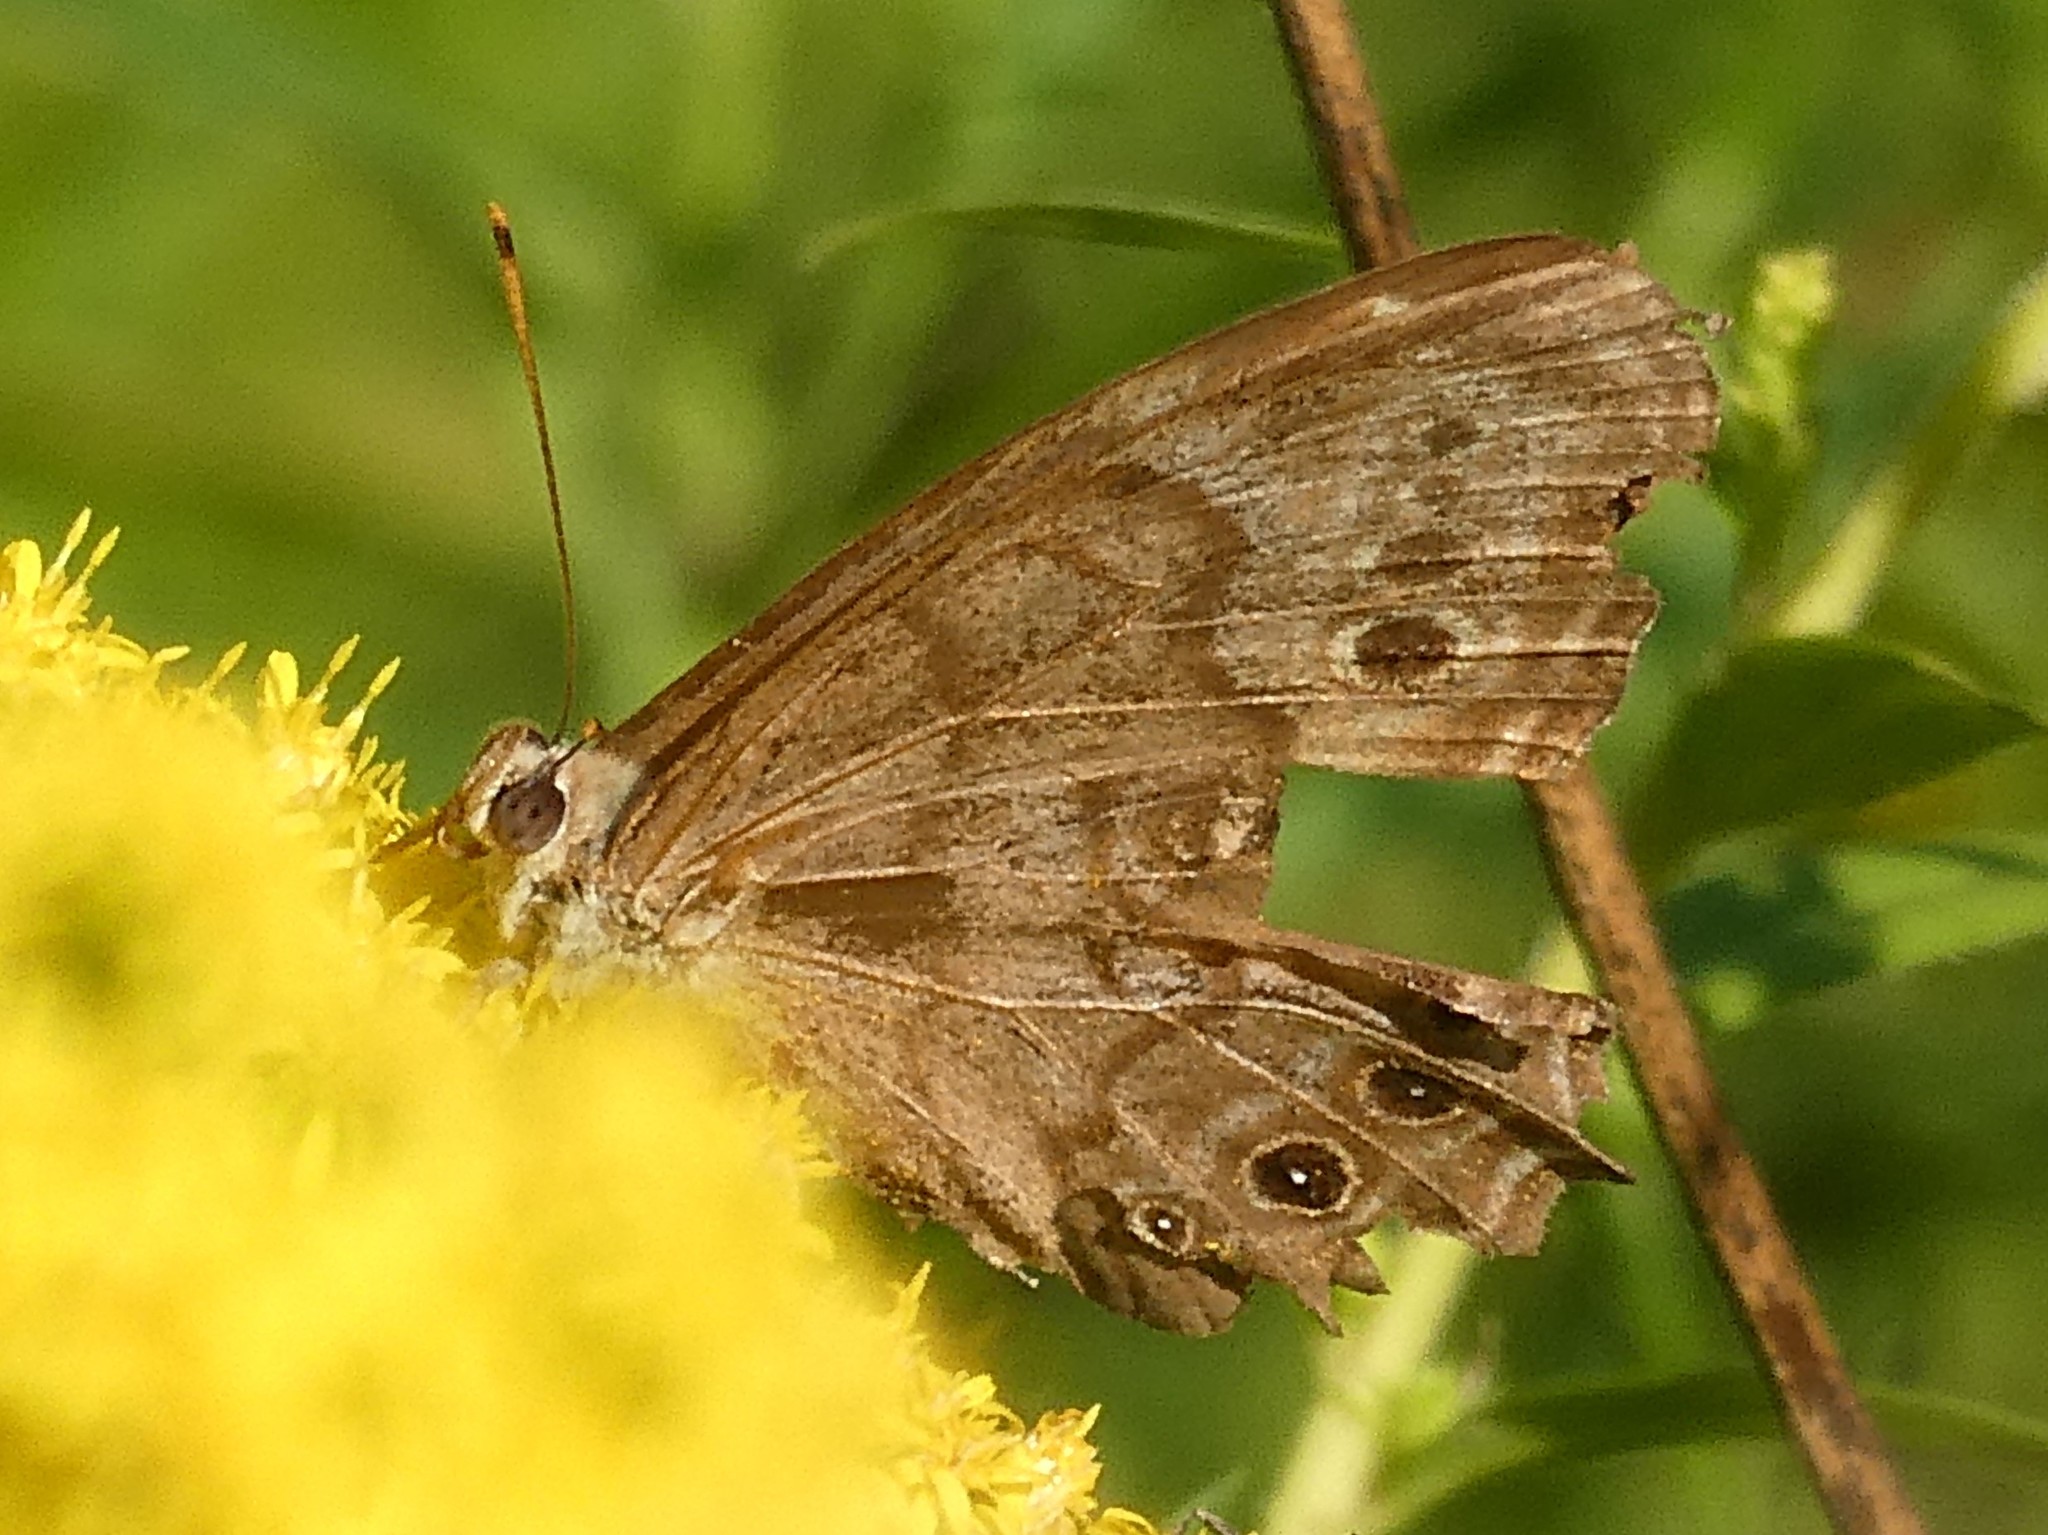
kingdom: Animalia
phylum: Arthropoda
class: Insecta
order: Lepidoptera
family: Nymphalidae
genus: Lethe
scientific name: Lethe anthedon
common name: Northern pearly-eye
